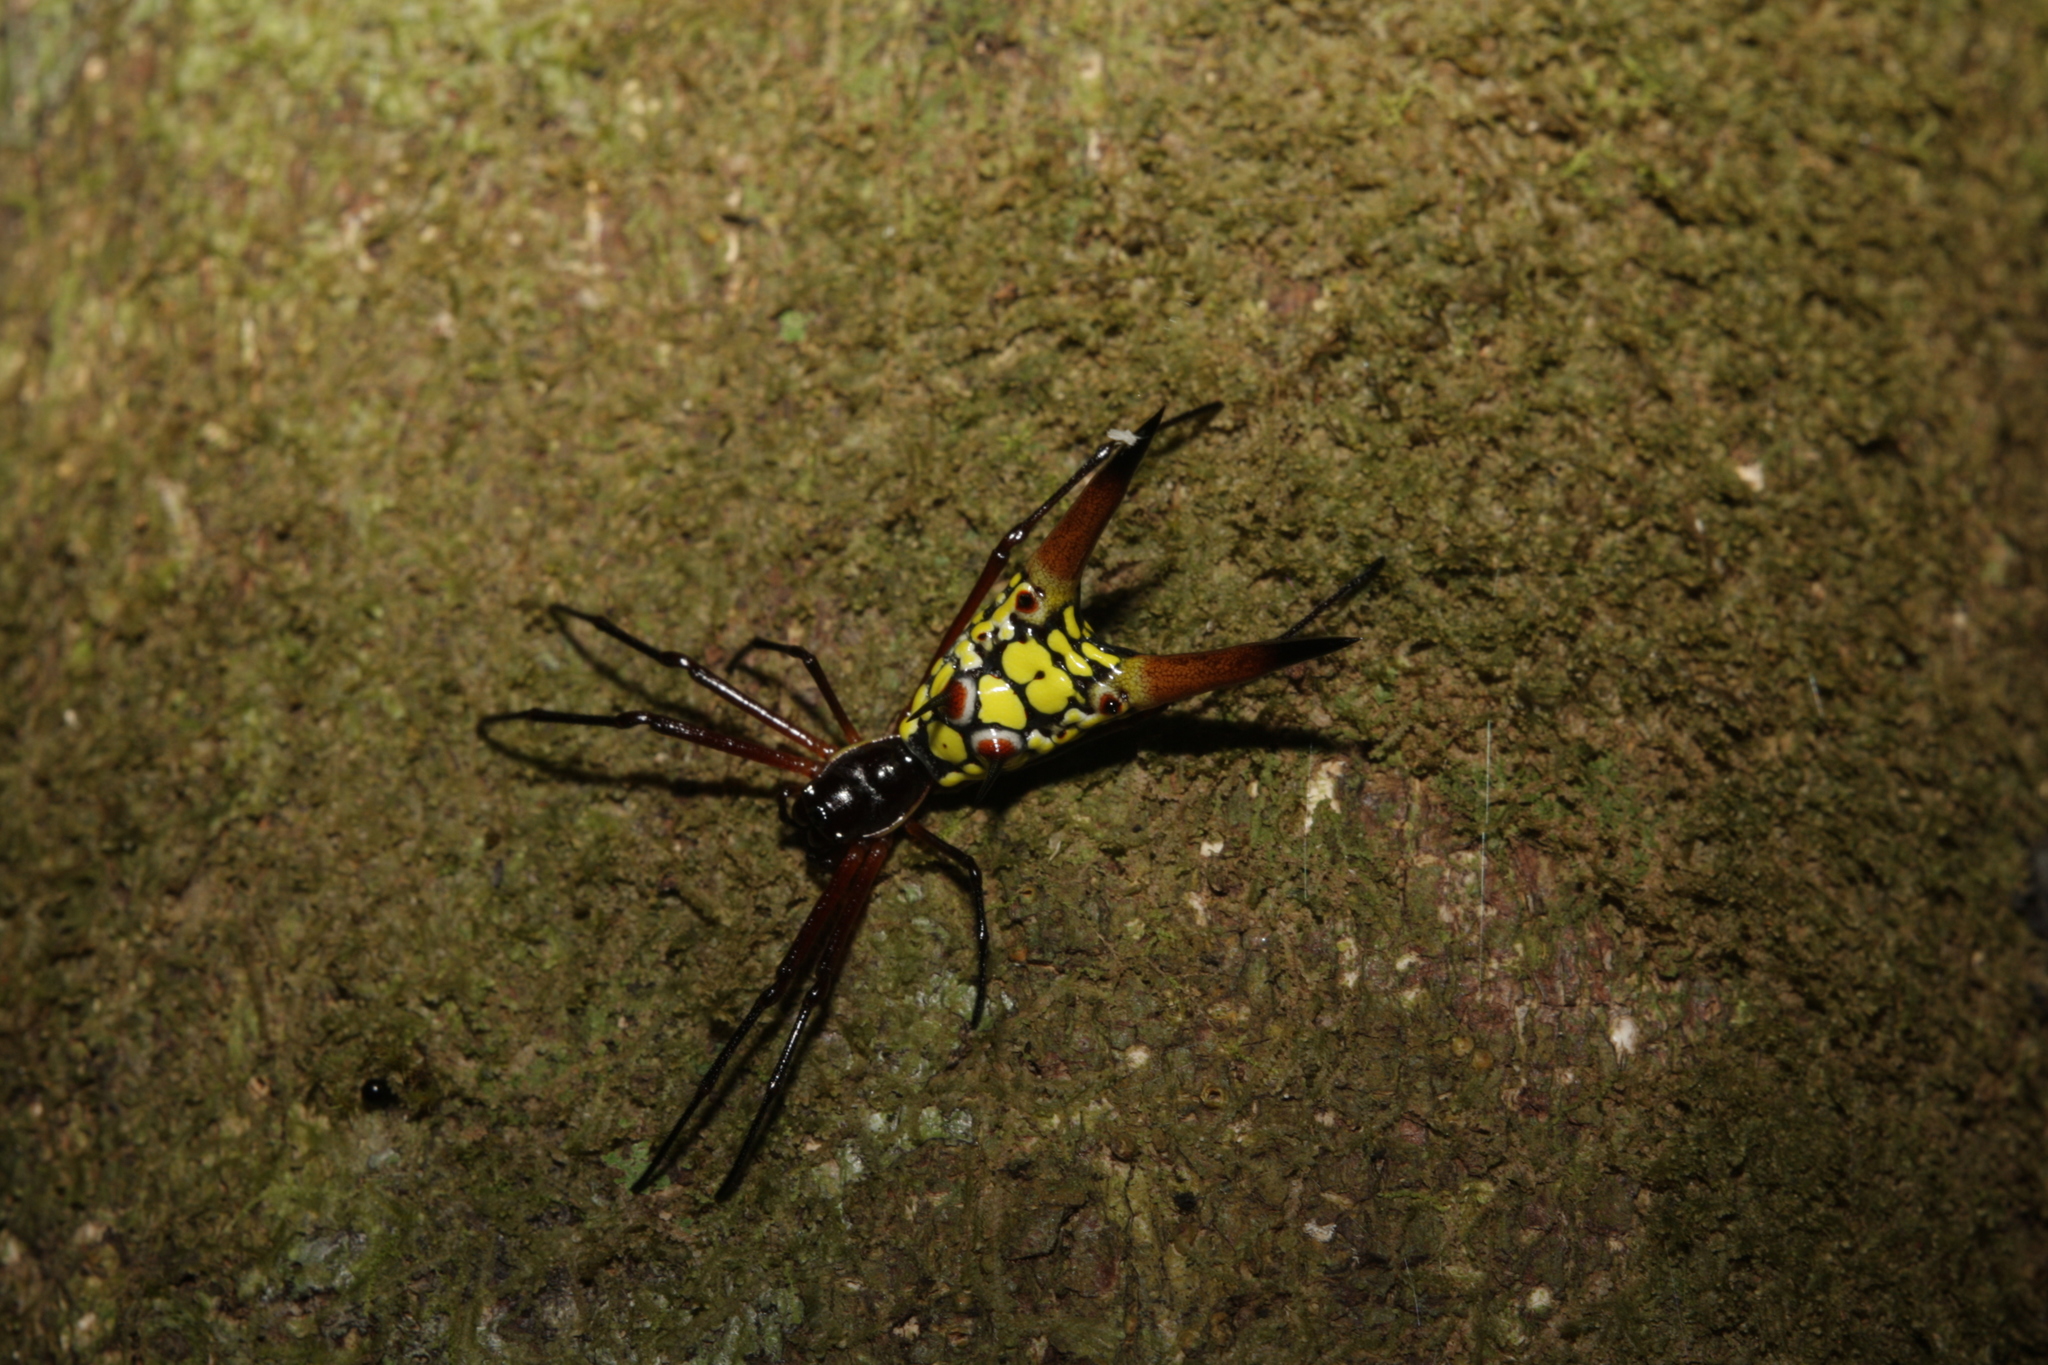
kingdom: Animalia
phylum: Arthropoda
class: Arachnida
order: Araneae
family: Araneidae
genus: Micrathena
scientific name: Micrathena brevipes
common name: Orb weavers
